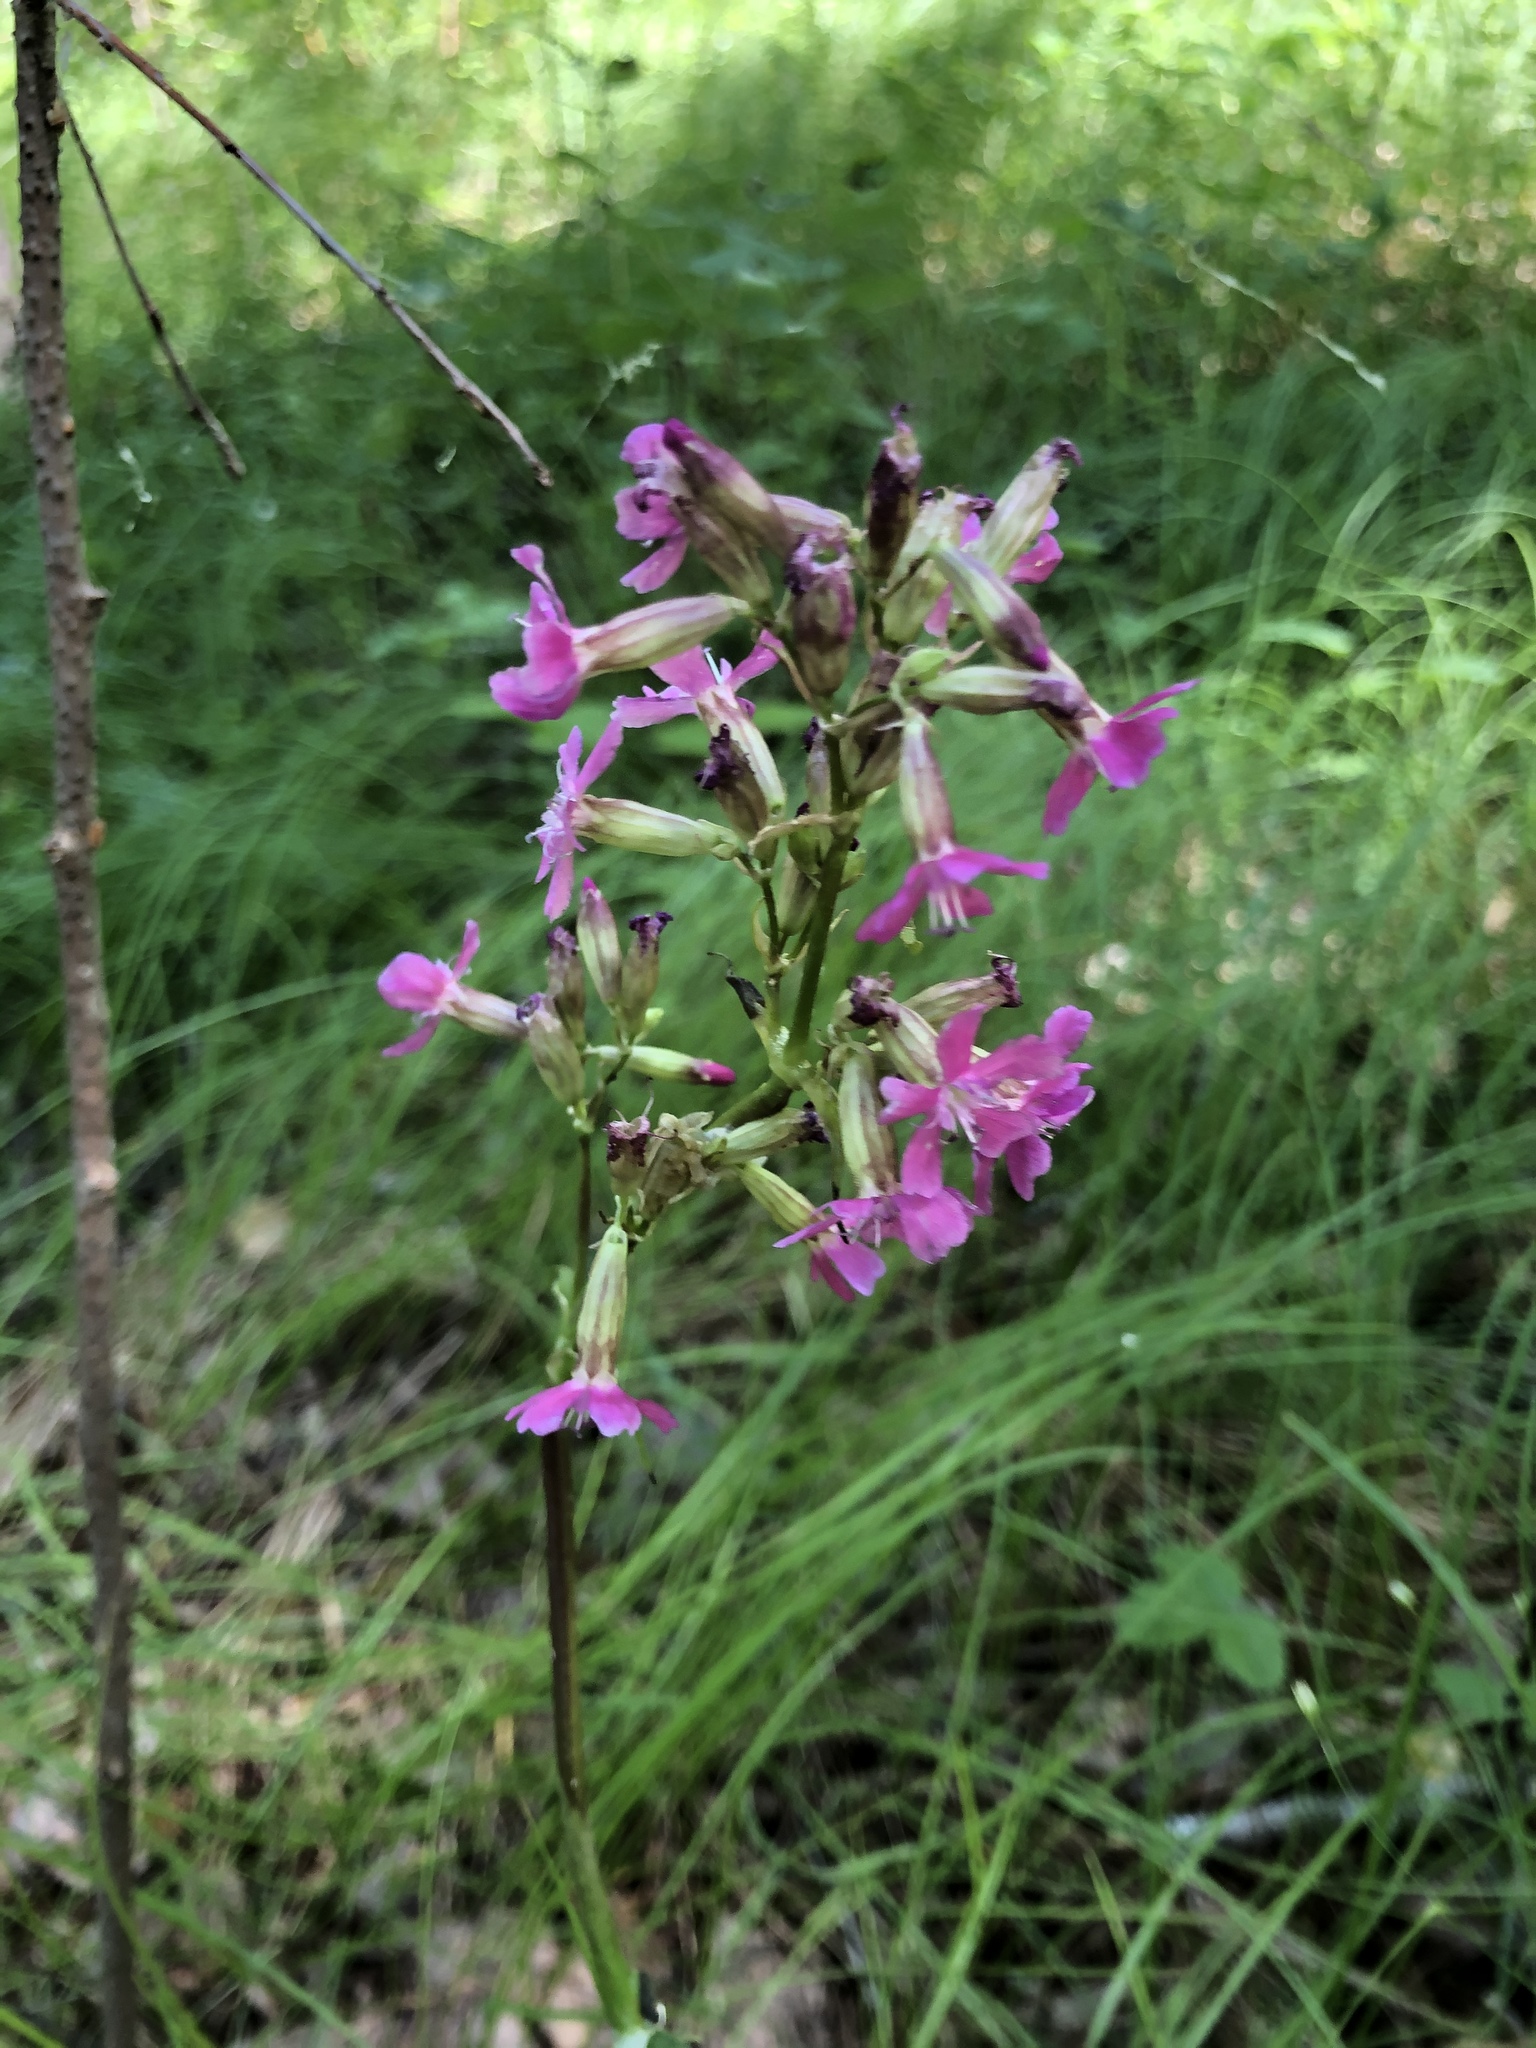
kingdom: Plantae
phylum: Tracheophyta
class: Magnoliopsida
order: Caryophyllales
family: Caryophyllaceae
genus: Viscaria
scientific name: Viscaria vulgaris
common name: Clammy campion
